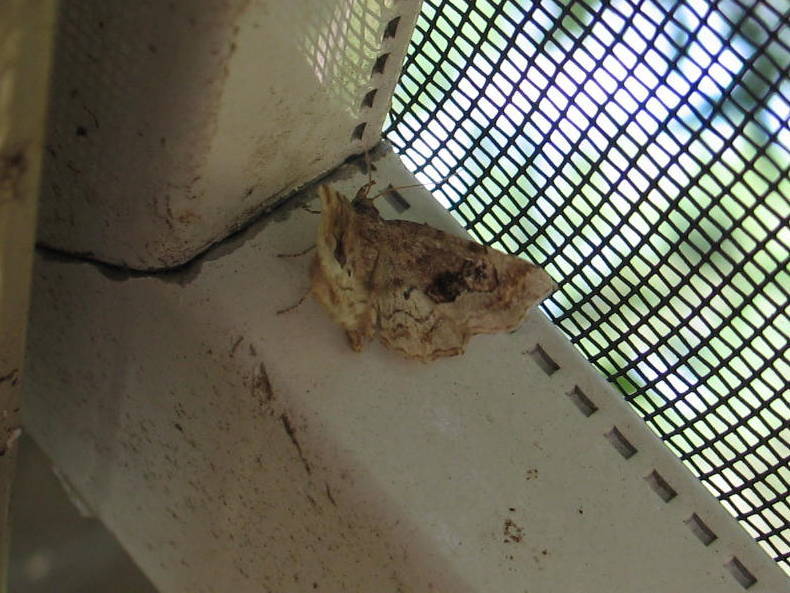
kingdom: Animalia
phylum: Arthropoda
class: Insecta
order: Lepidoptera
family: Erebidae
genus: Pangrapta
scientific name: Pangrapta decoralis
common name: Decorated owlet
